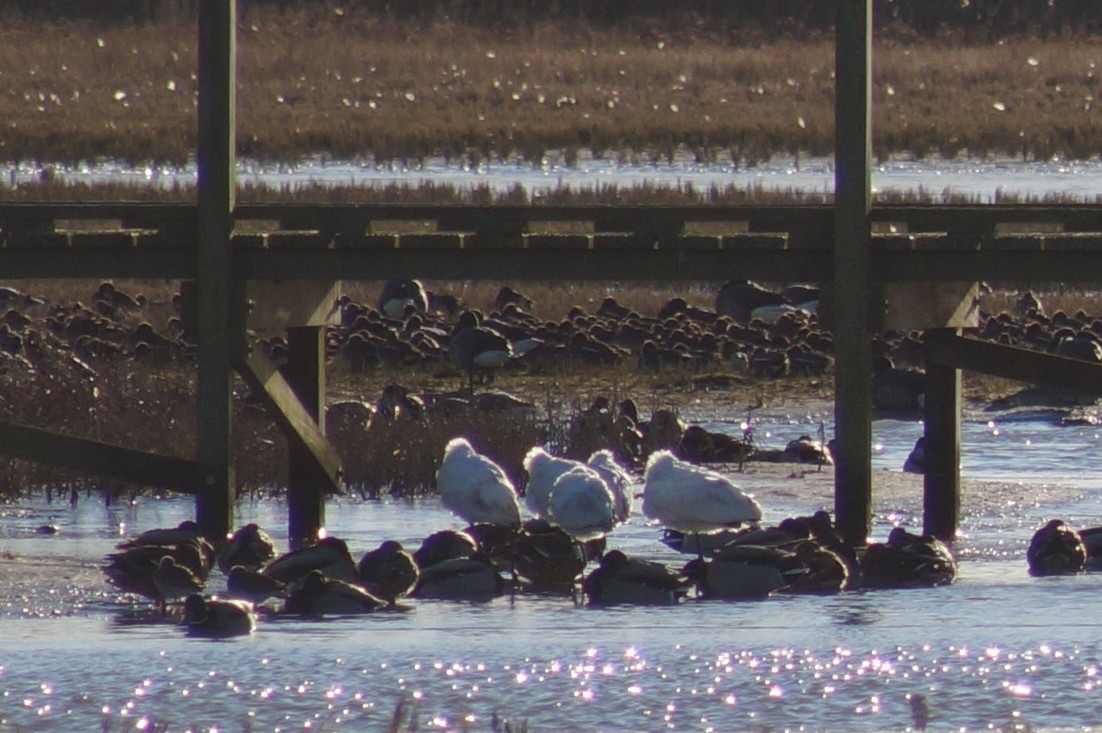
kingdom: Animalia
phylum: Chordata
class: Aves
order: Pelecaniformes
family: Threskiornithidae
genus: Platalea
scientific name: Platalea leucorodia
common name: Eurasian spoonbill
